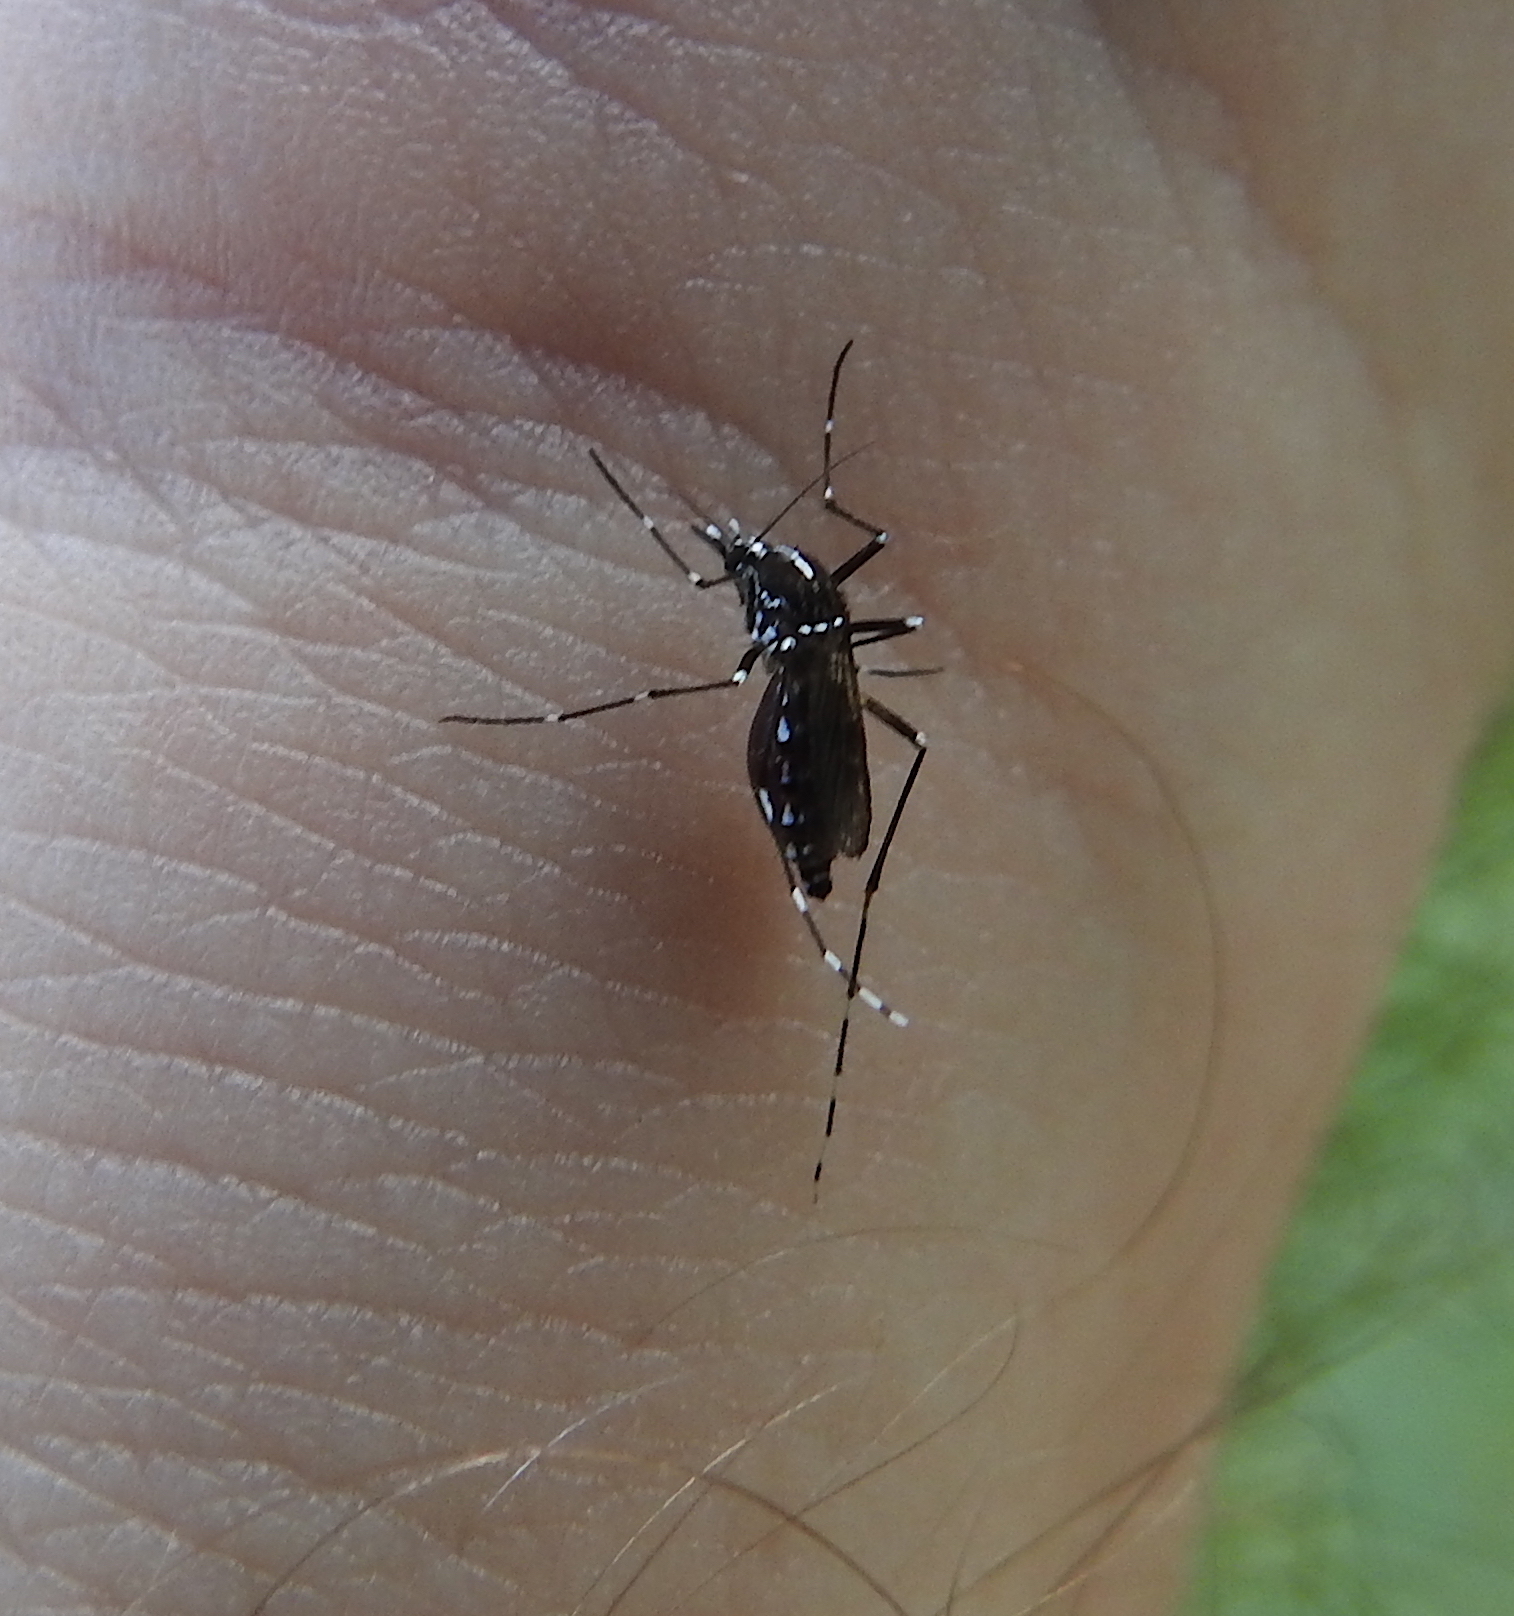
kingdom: Animalia
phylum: Arthropoda
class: Insecta
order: Diptera
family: Culicidae
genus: Aedes
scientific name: Aedes albopictus
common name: Tiger mosquito
